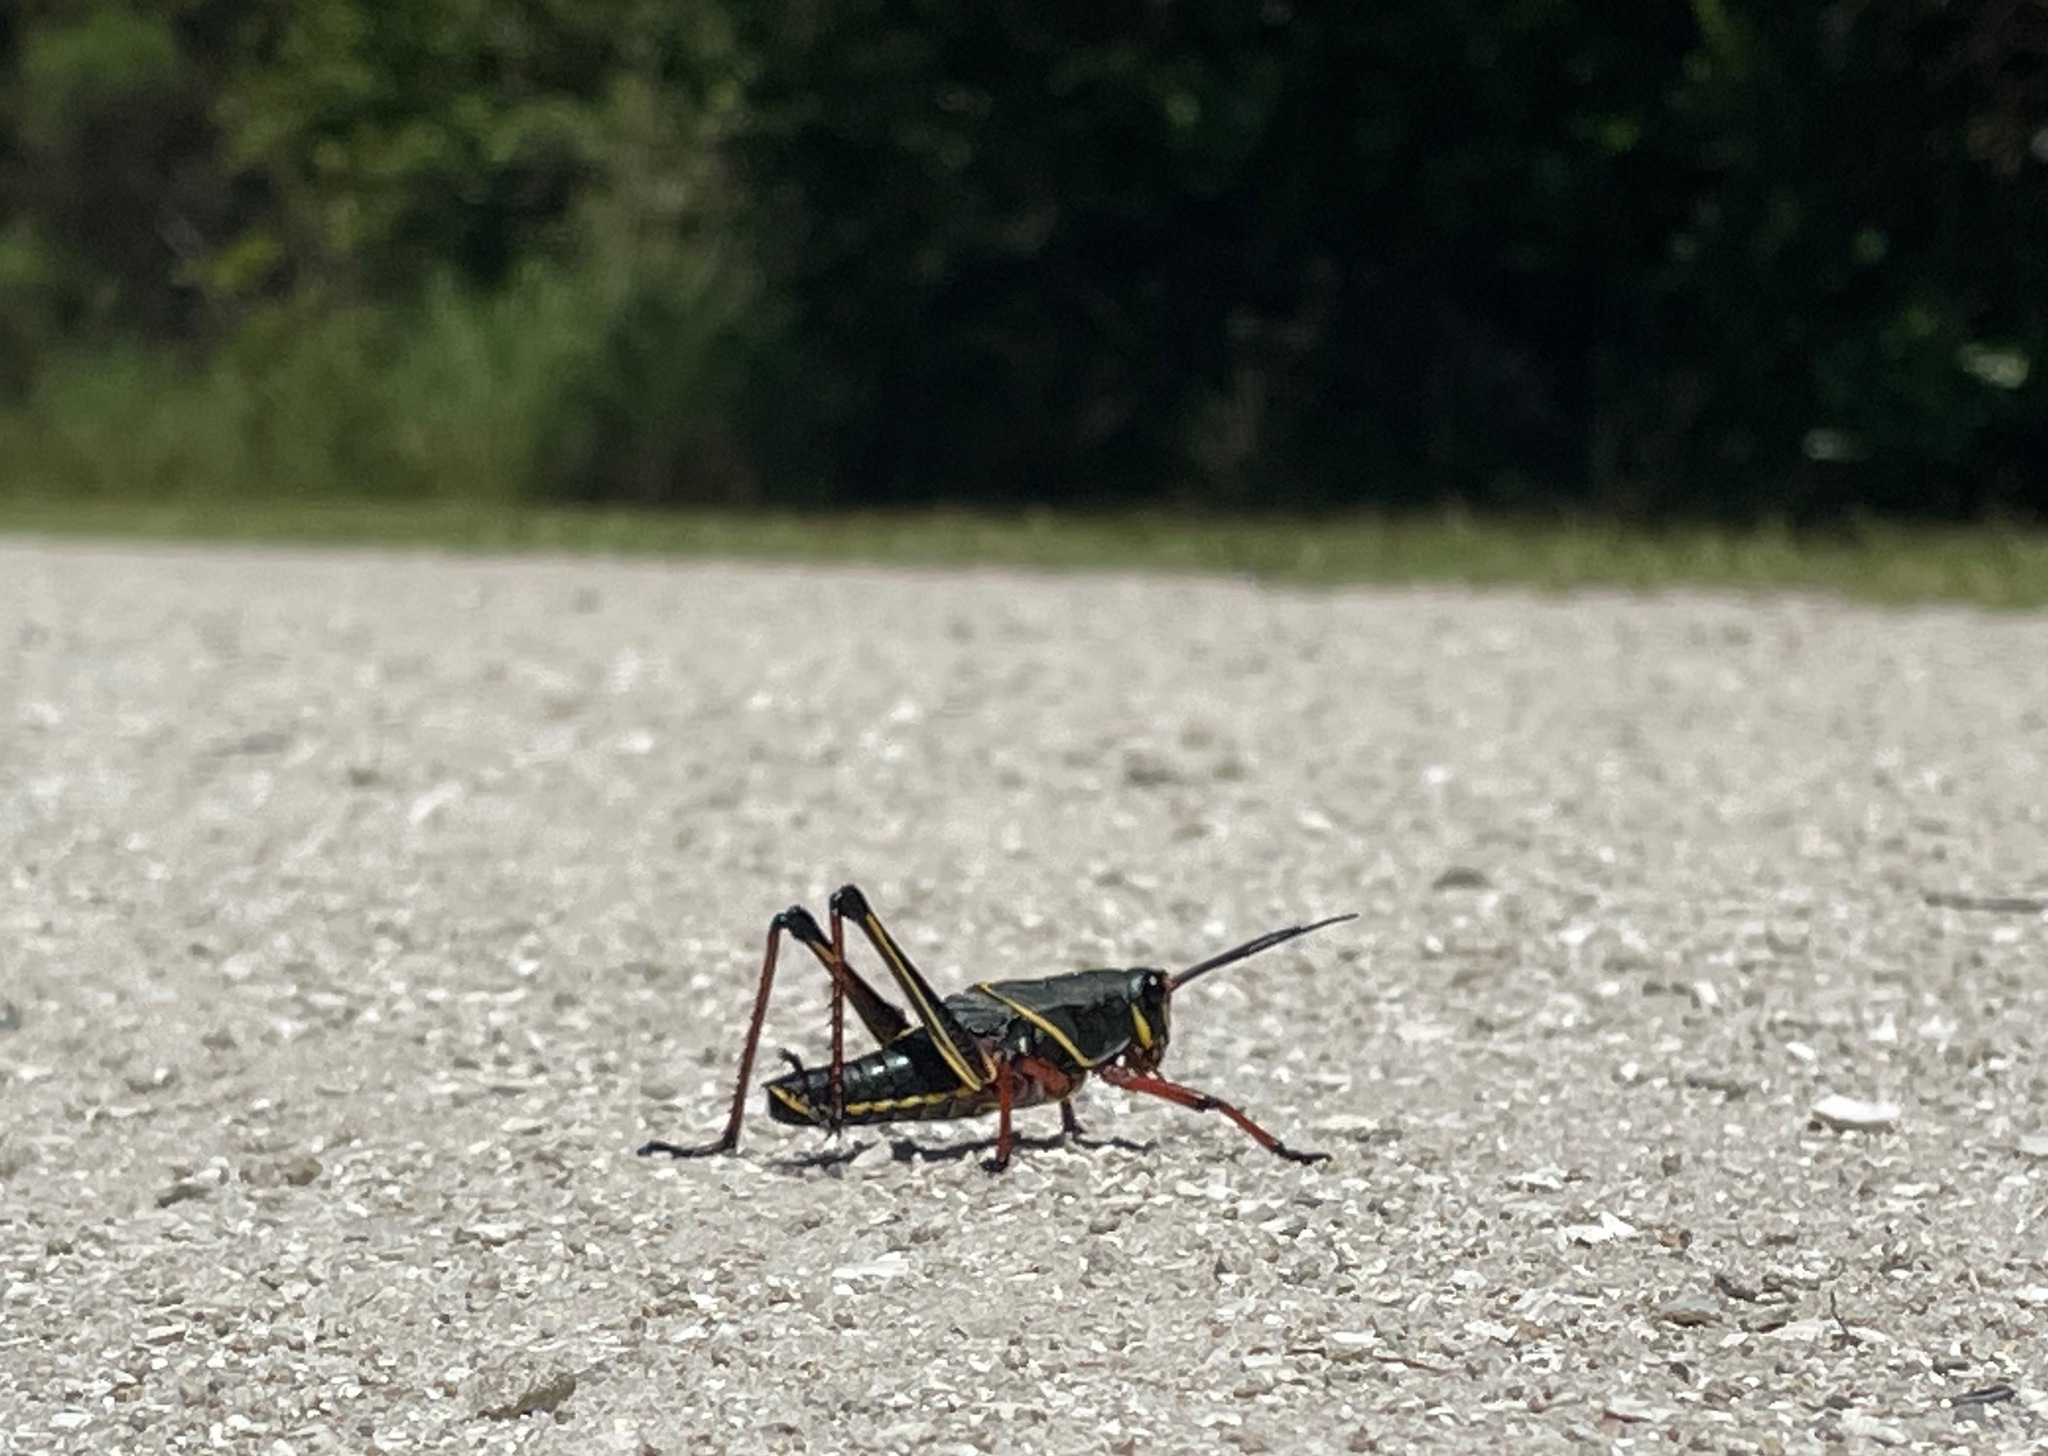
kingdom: Animalia
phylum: Arthropoda
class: Insecta
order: Orthoptera
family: Romaleidae
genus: Romalea
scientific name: Romalea microptera
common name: Eastern lubber grasshopper
